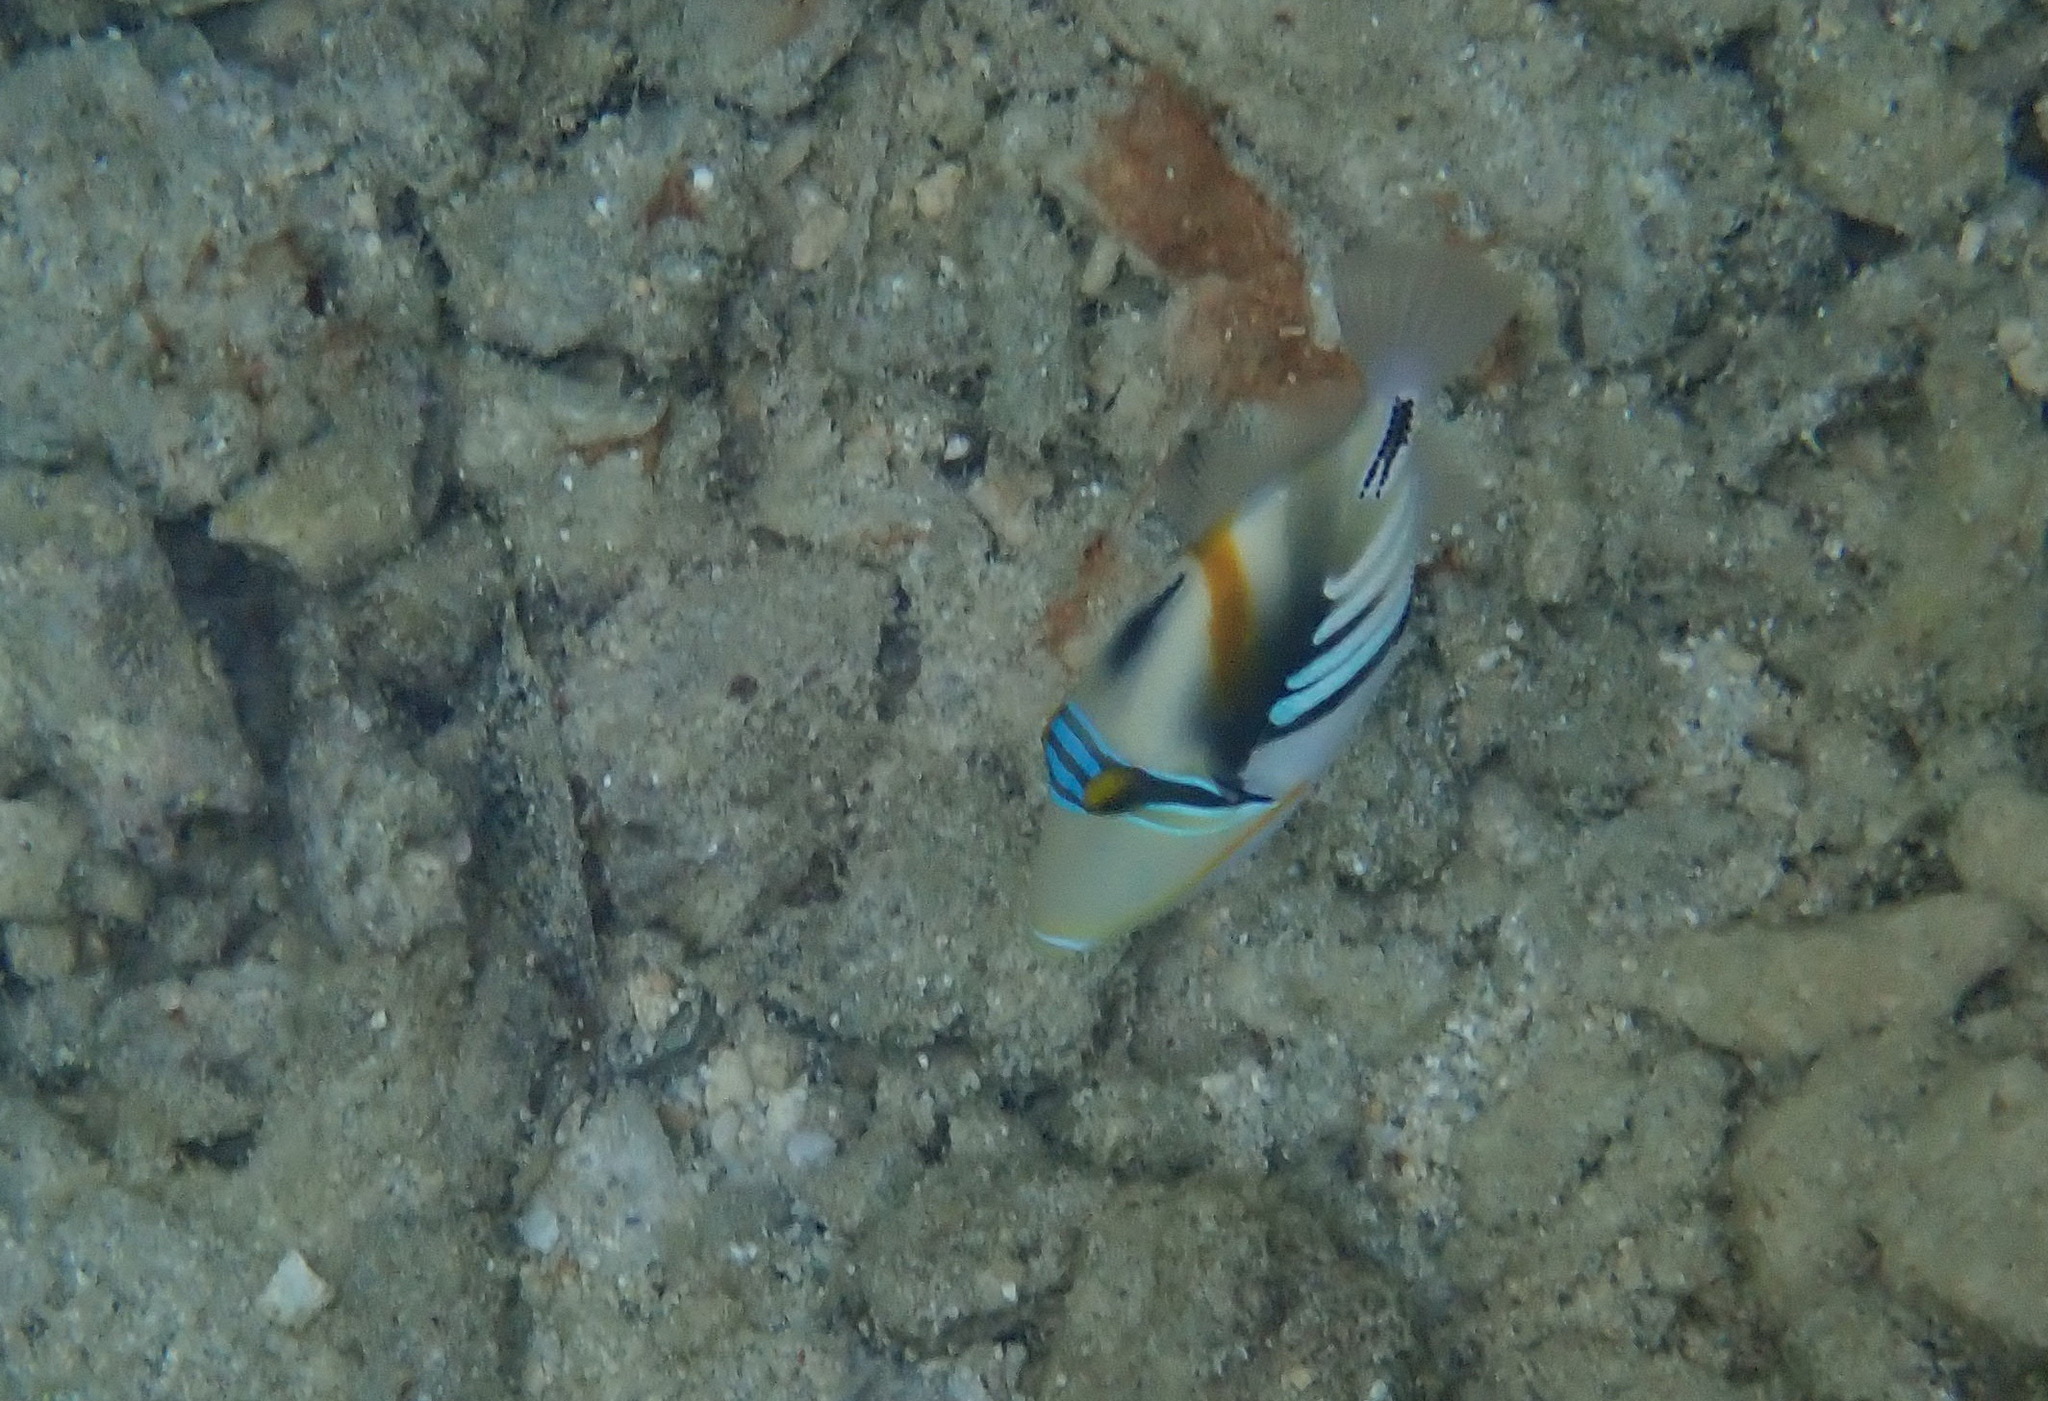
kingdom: Animalia
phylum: Chordata
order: Tetraodontiformes
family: Balistidae
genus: Rhinecanthus
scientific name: Rhinecanthus aculeatus
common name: White-banded triggerfish
